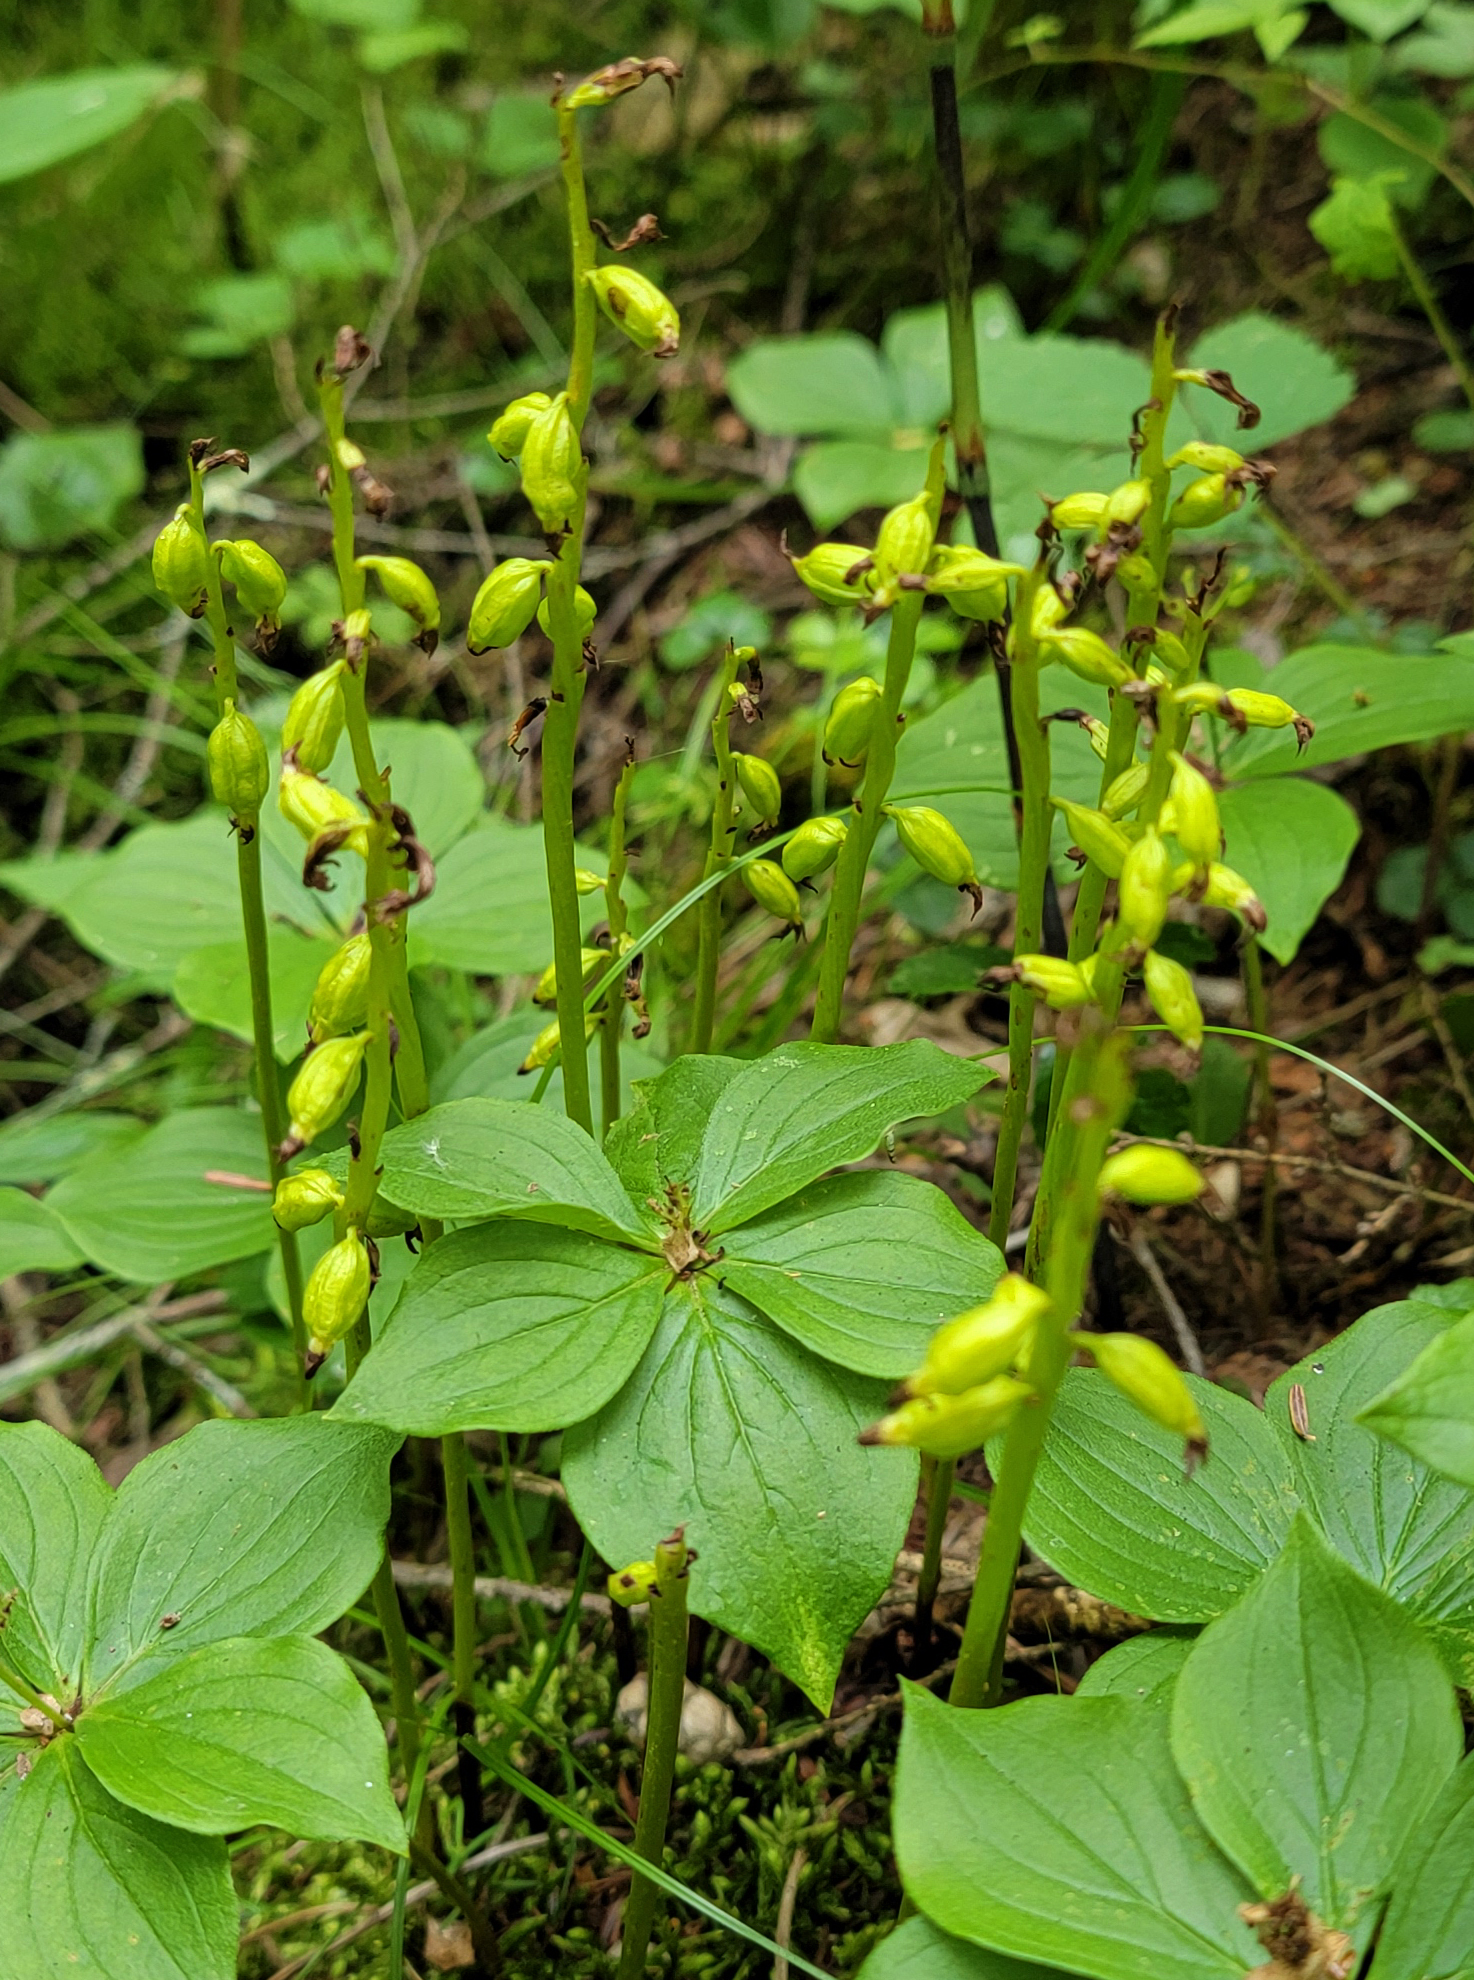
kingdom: Plantae
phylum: Tracheophyta
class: Liliopsida
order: Asparagales
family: Orchidaceae
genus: Corallorhiza
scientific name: Corallorhiza trifida
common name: Yellow coralroot
